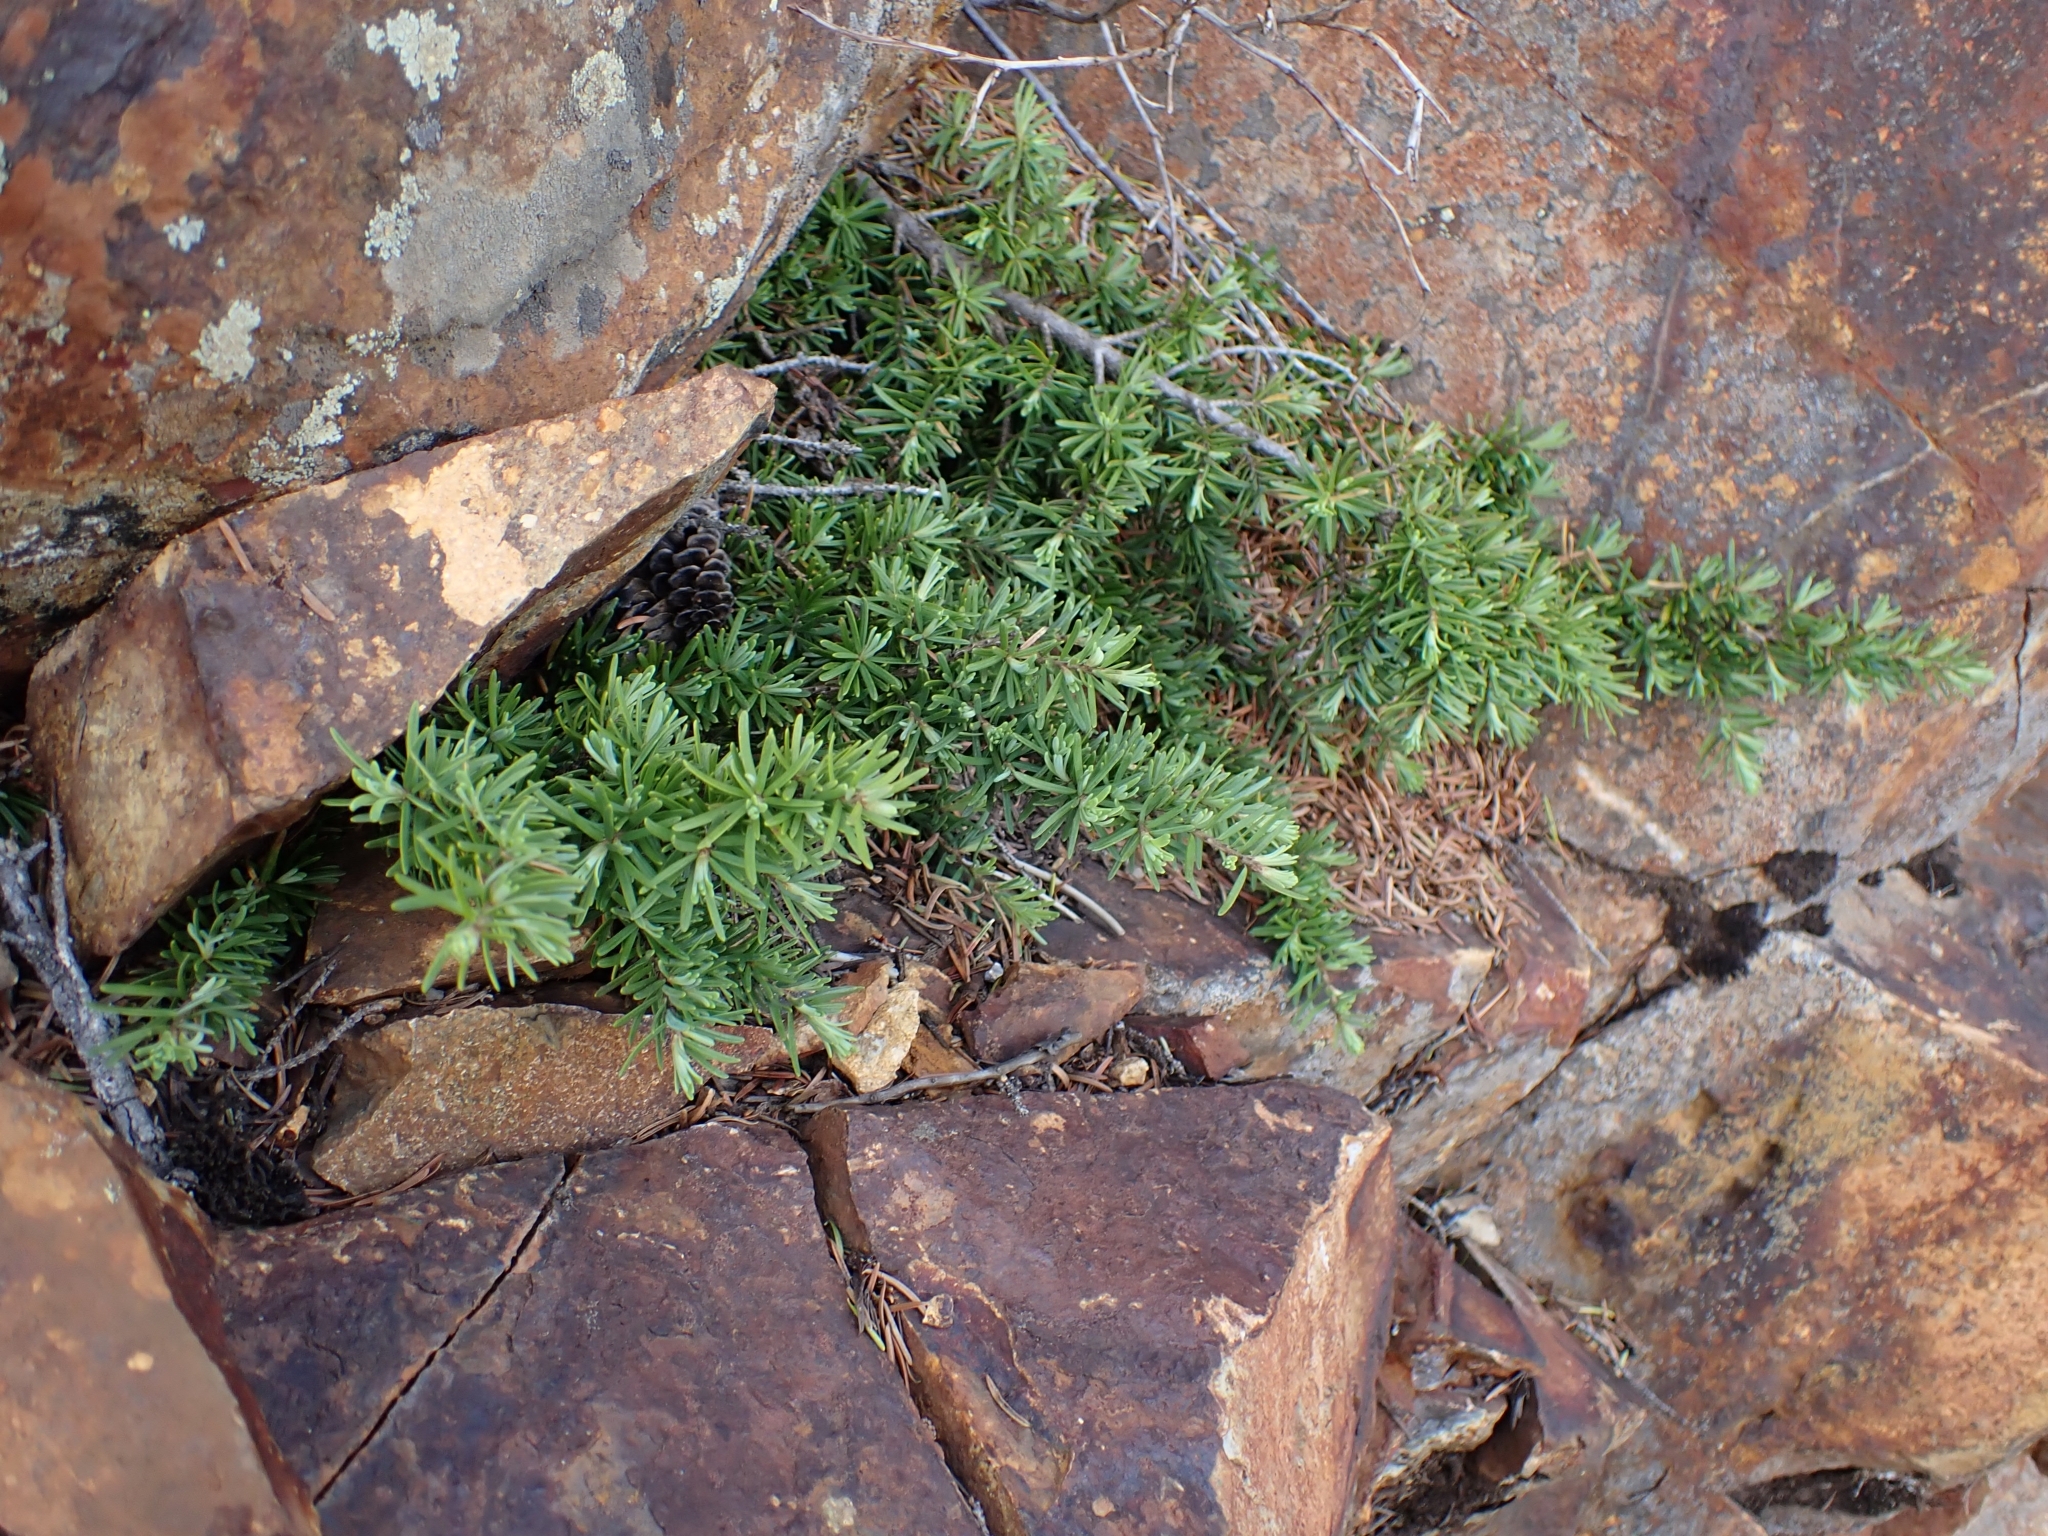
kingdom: Plantae
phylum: Tracheophyta
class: Pinopsida
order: Pinales
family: Pinaceae
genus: Tsuga
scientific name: Tsuga mertensiana
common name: Mountain hemlock
